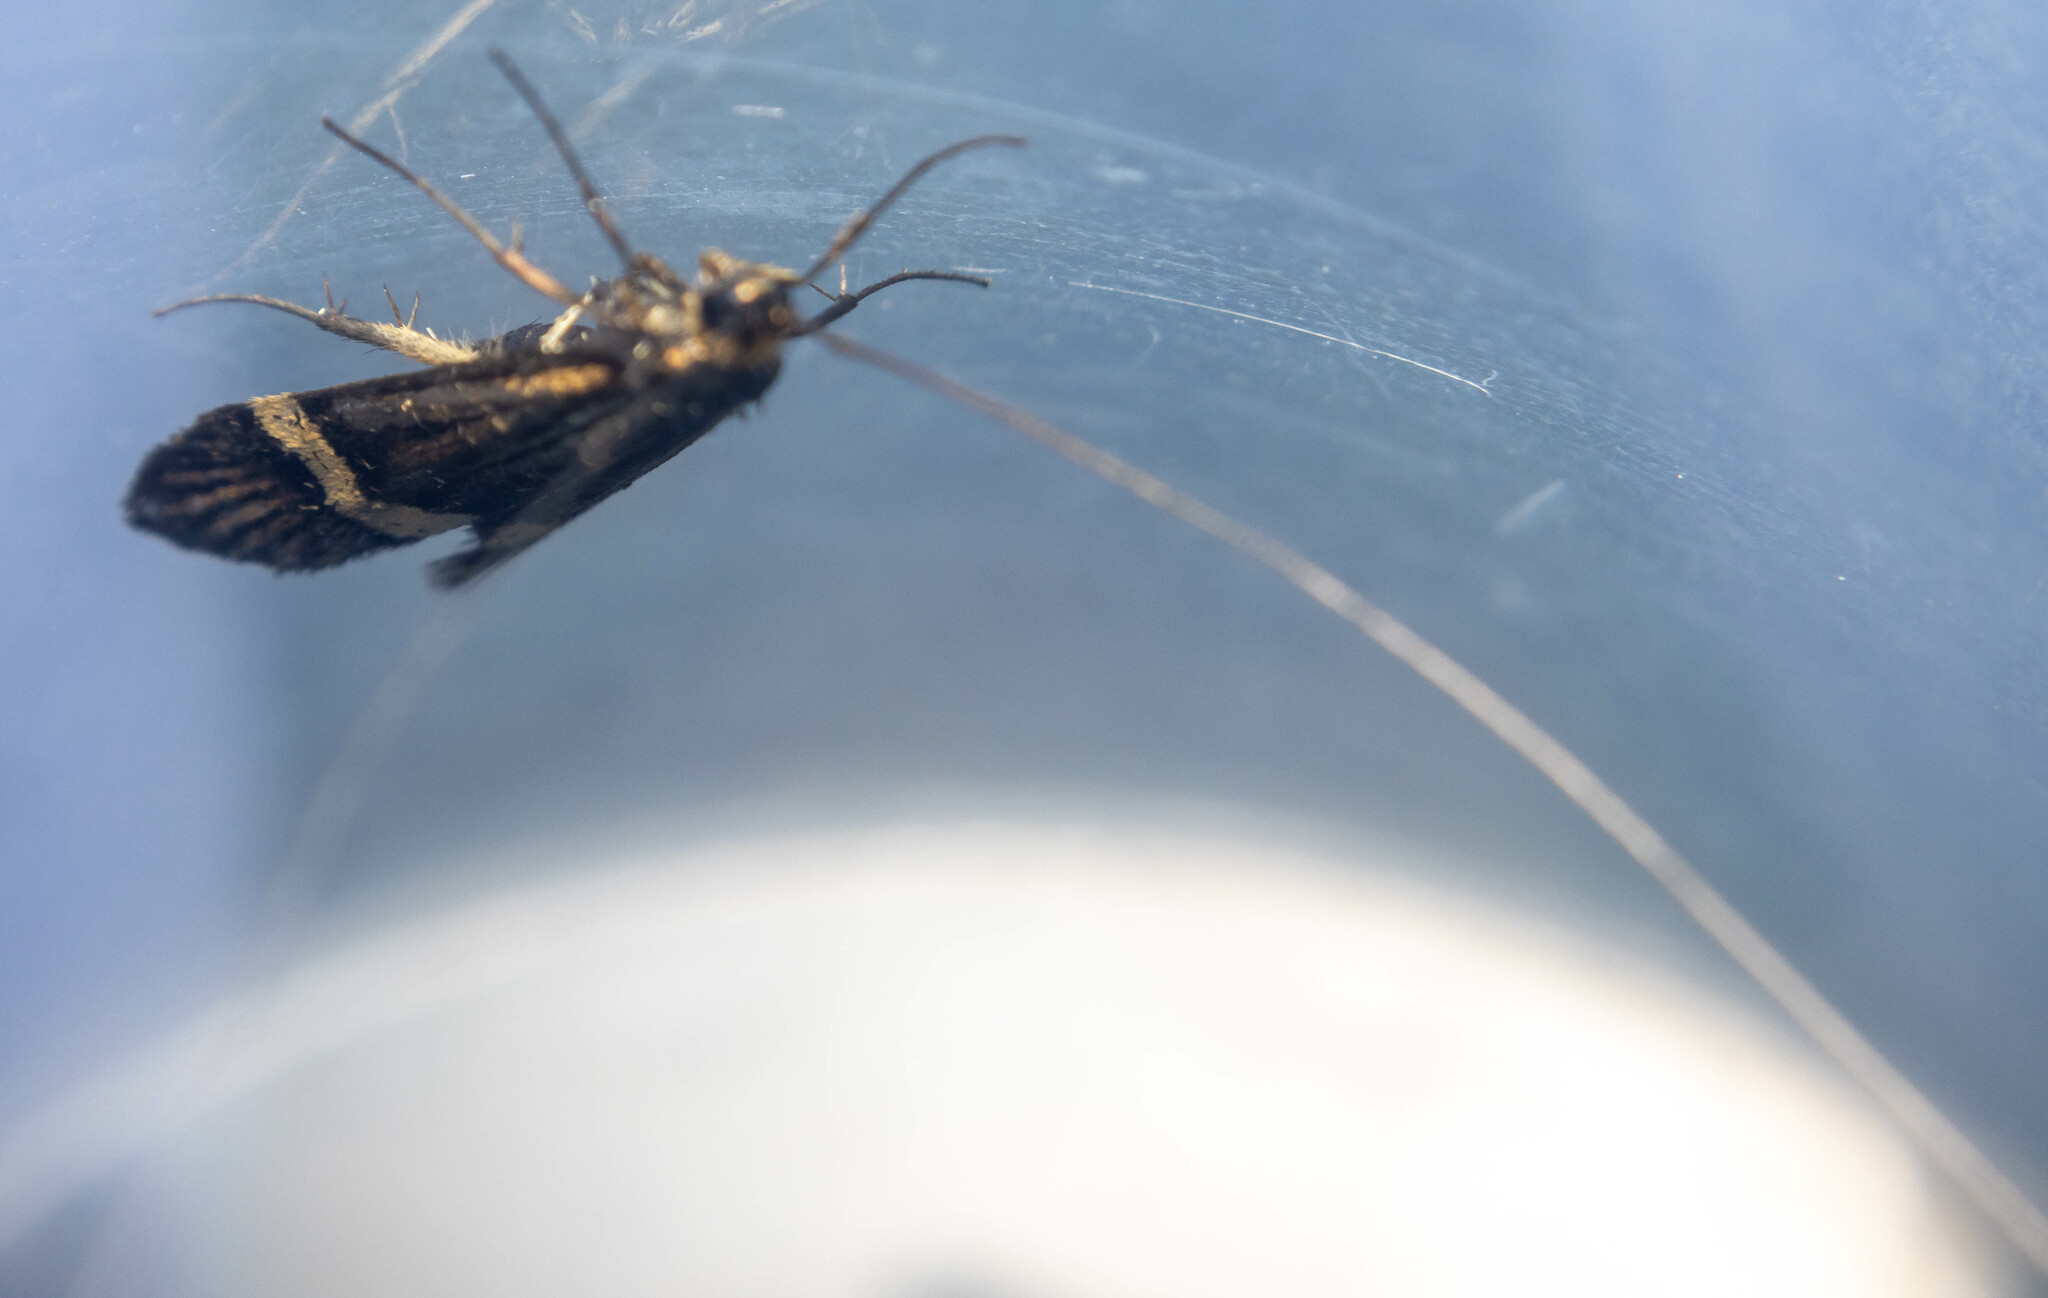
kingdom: Animalia
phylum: Arthropoda
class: Insecta
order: Lepidoptera
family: Adelidae
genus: Nemophora
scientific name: Nemophora degeerella
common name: Yellow-barred long-horn
